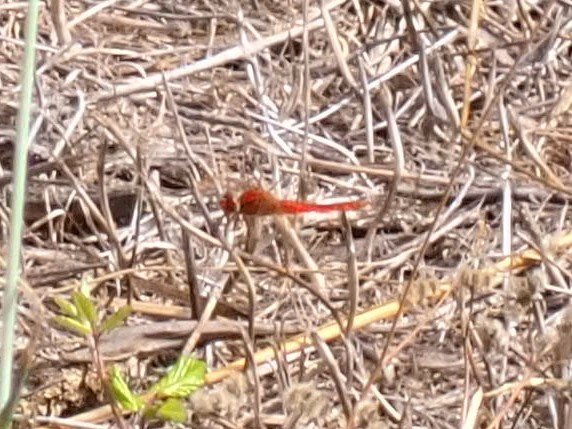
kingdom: Animalia
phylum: Arthropoda
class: Insecta
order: Odonata
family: Libellulidae
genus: Crocothemis
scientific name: Crocothemis erythraea
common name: Scarlet dragonfly
